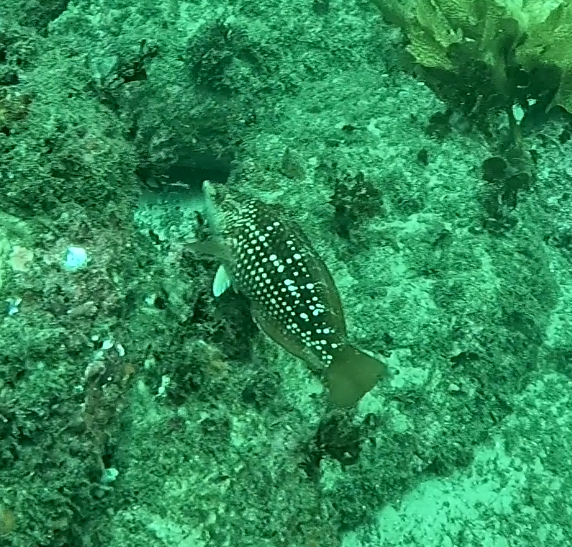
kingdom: Animalia
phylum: Chordata
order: Perciformes
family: Labridae
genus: Notolabrus
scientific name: Notolabrus gymnogenis
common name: Crimson banded wrasse
